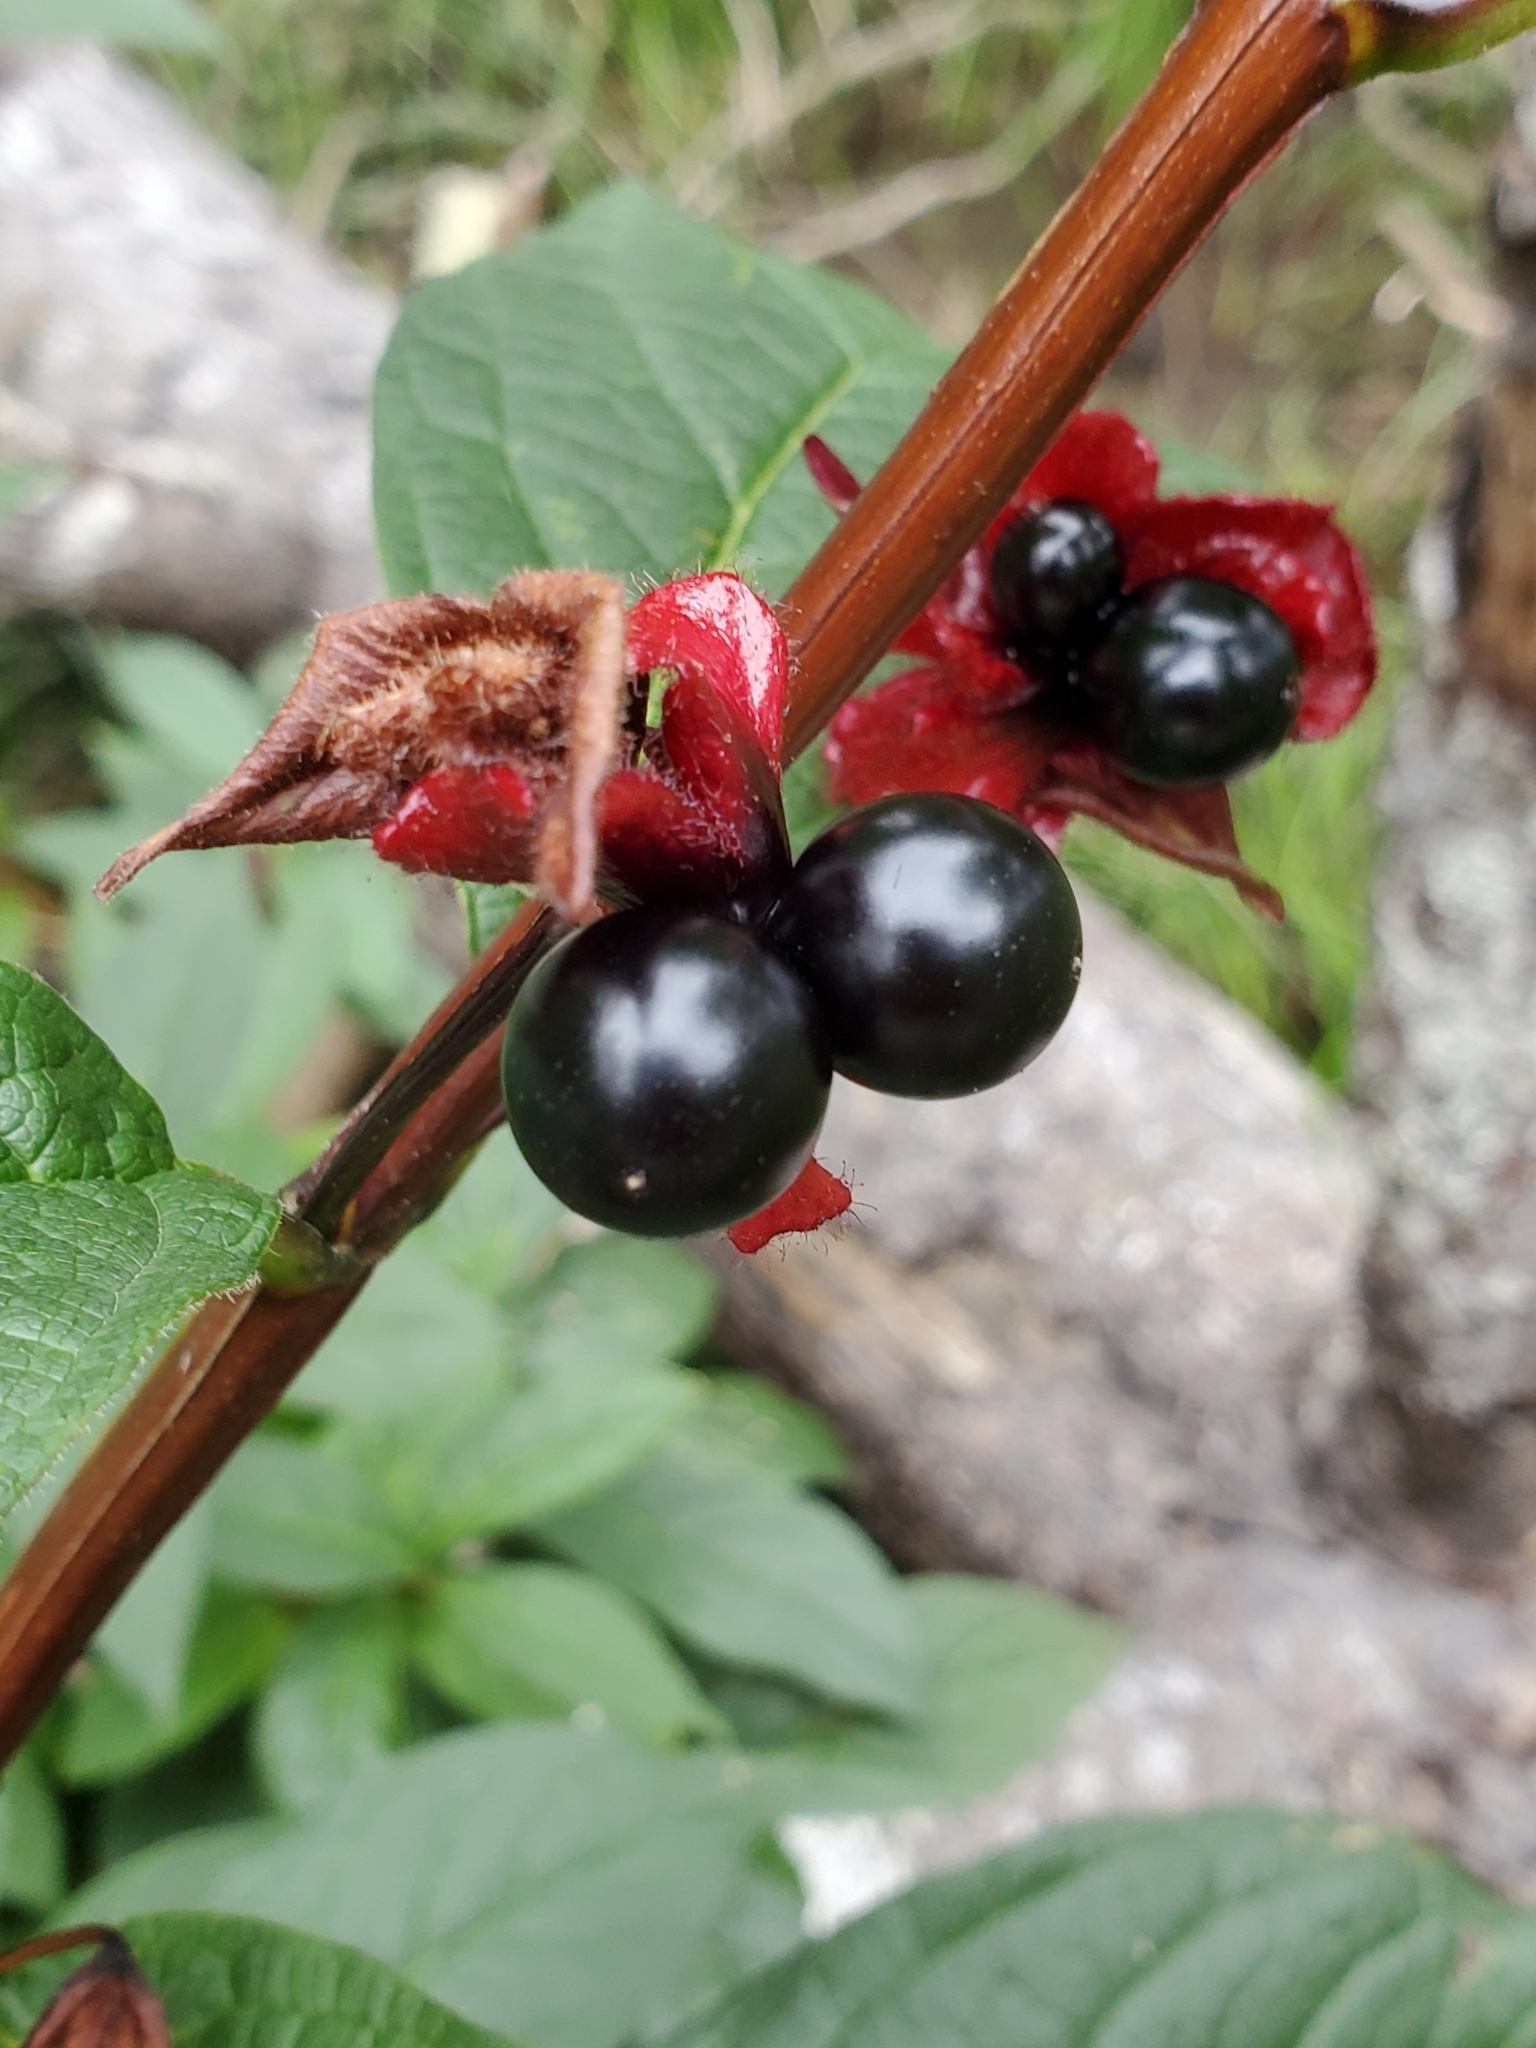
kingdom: Plantae
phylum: Tracheophyta
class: Magnoliopsida
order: Dipsacales
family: Caprifoliaceae
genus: Lonicera
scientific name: Lonicera involucrata
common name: Californian honeysuckle
